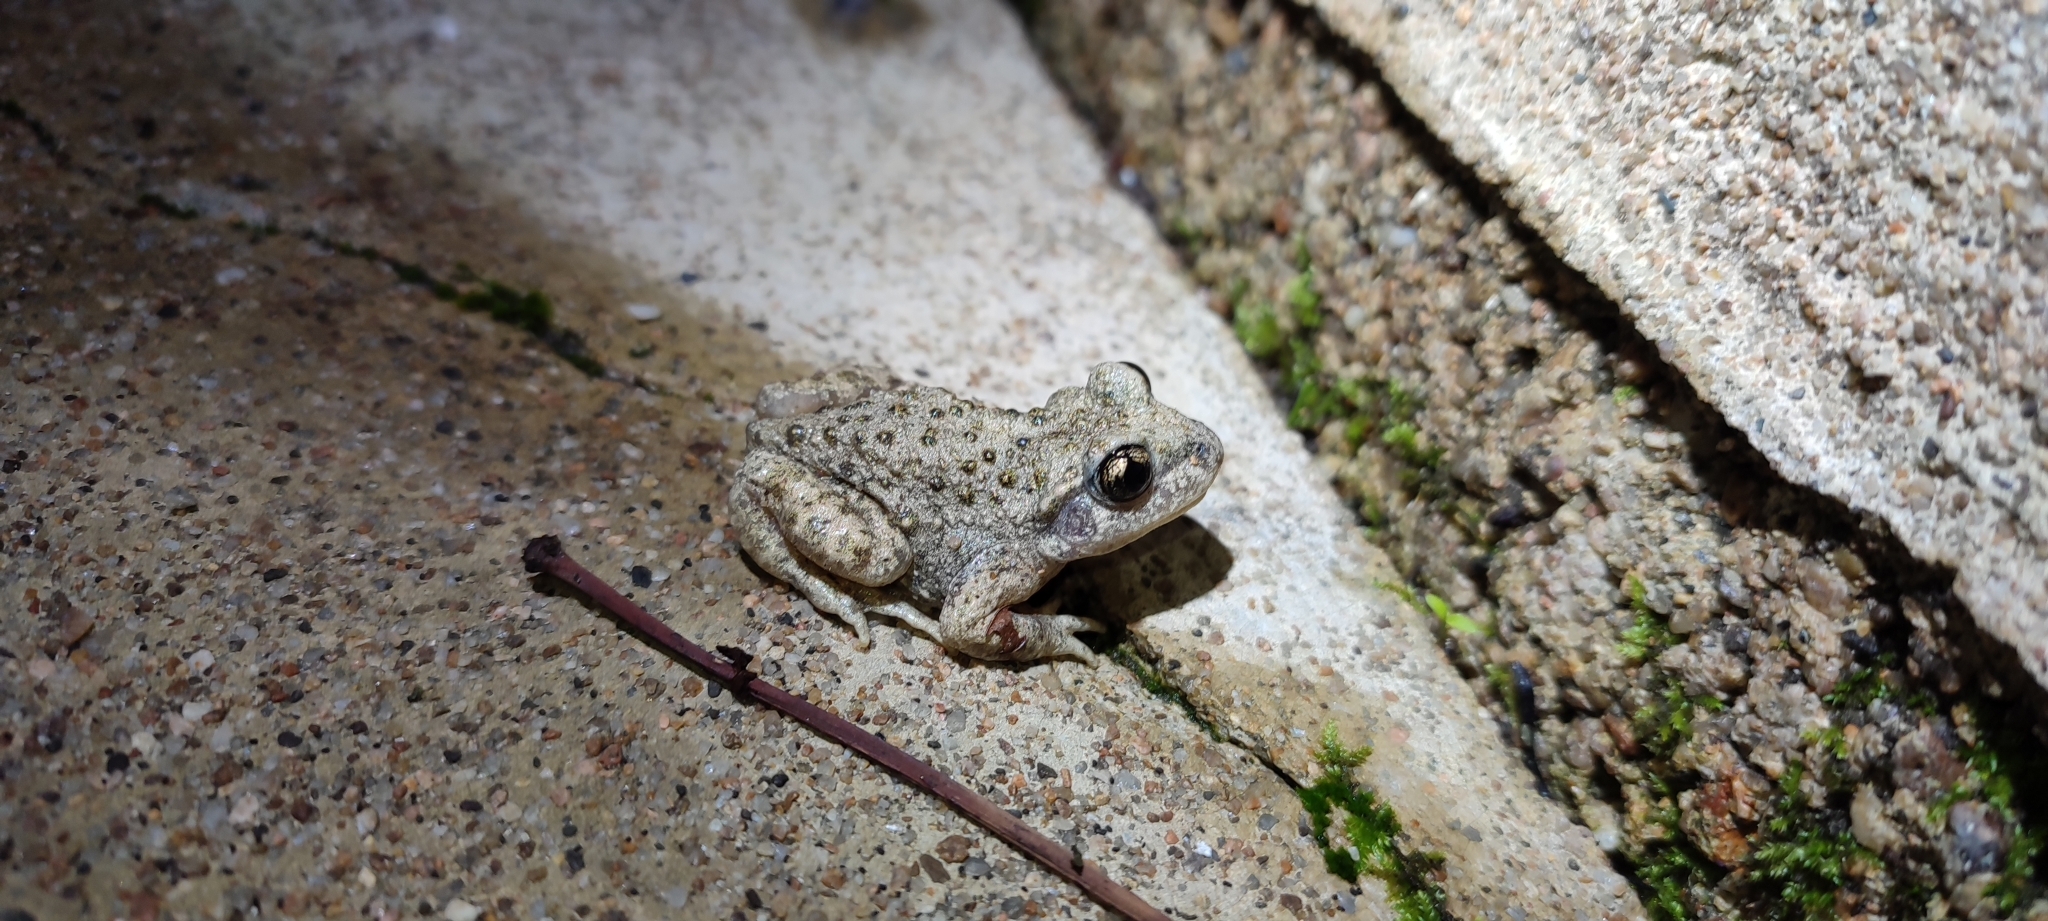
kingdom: Animalia
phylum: Chordata
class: Amphibia
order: Anura
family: Alytidae
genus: Alytes
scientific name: Alytes obstetricans
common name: Midwife toad
